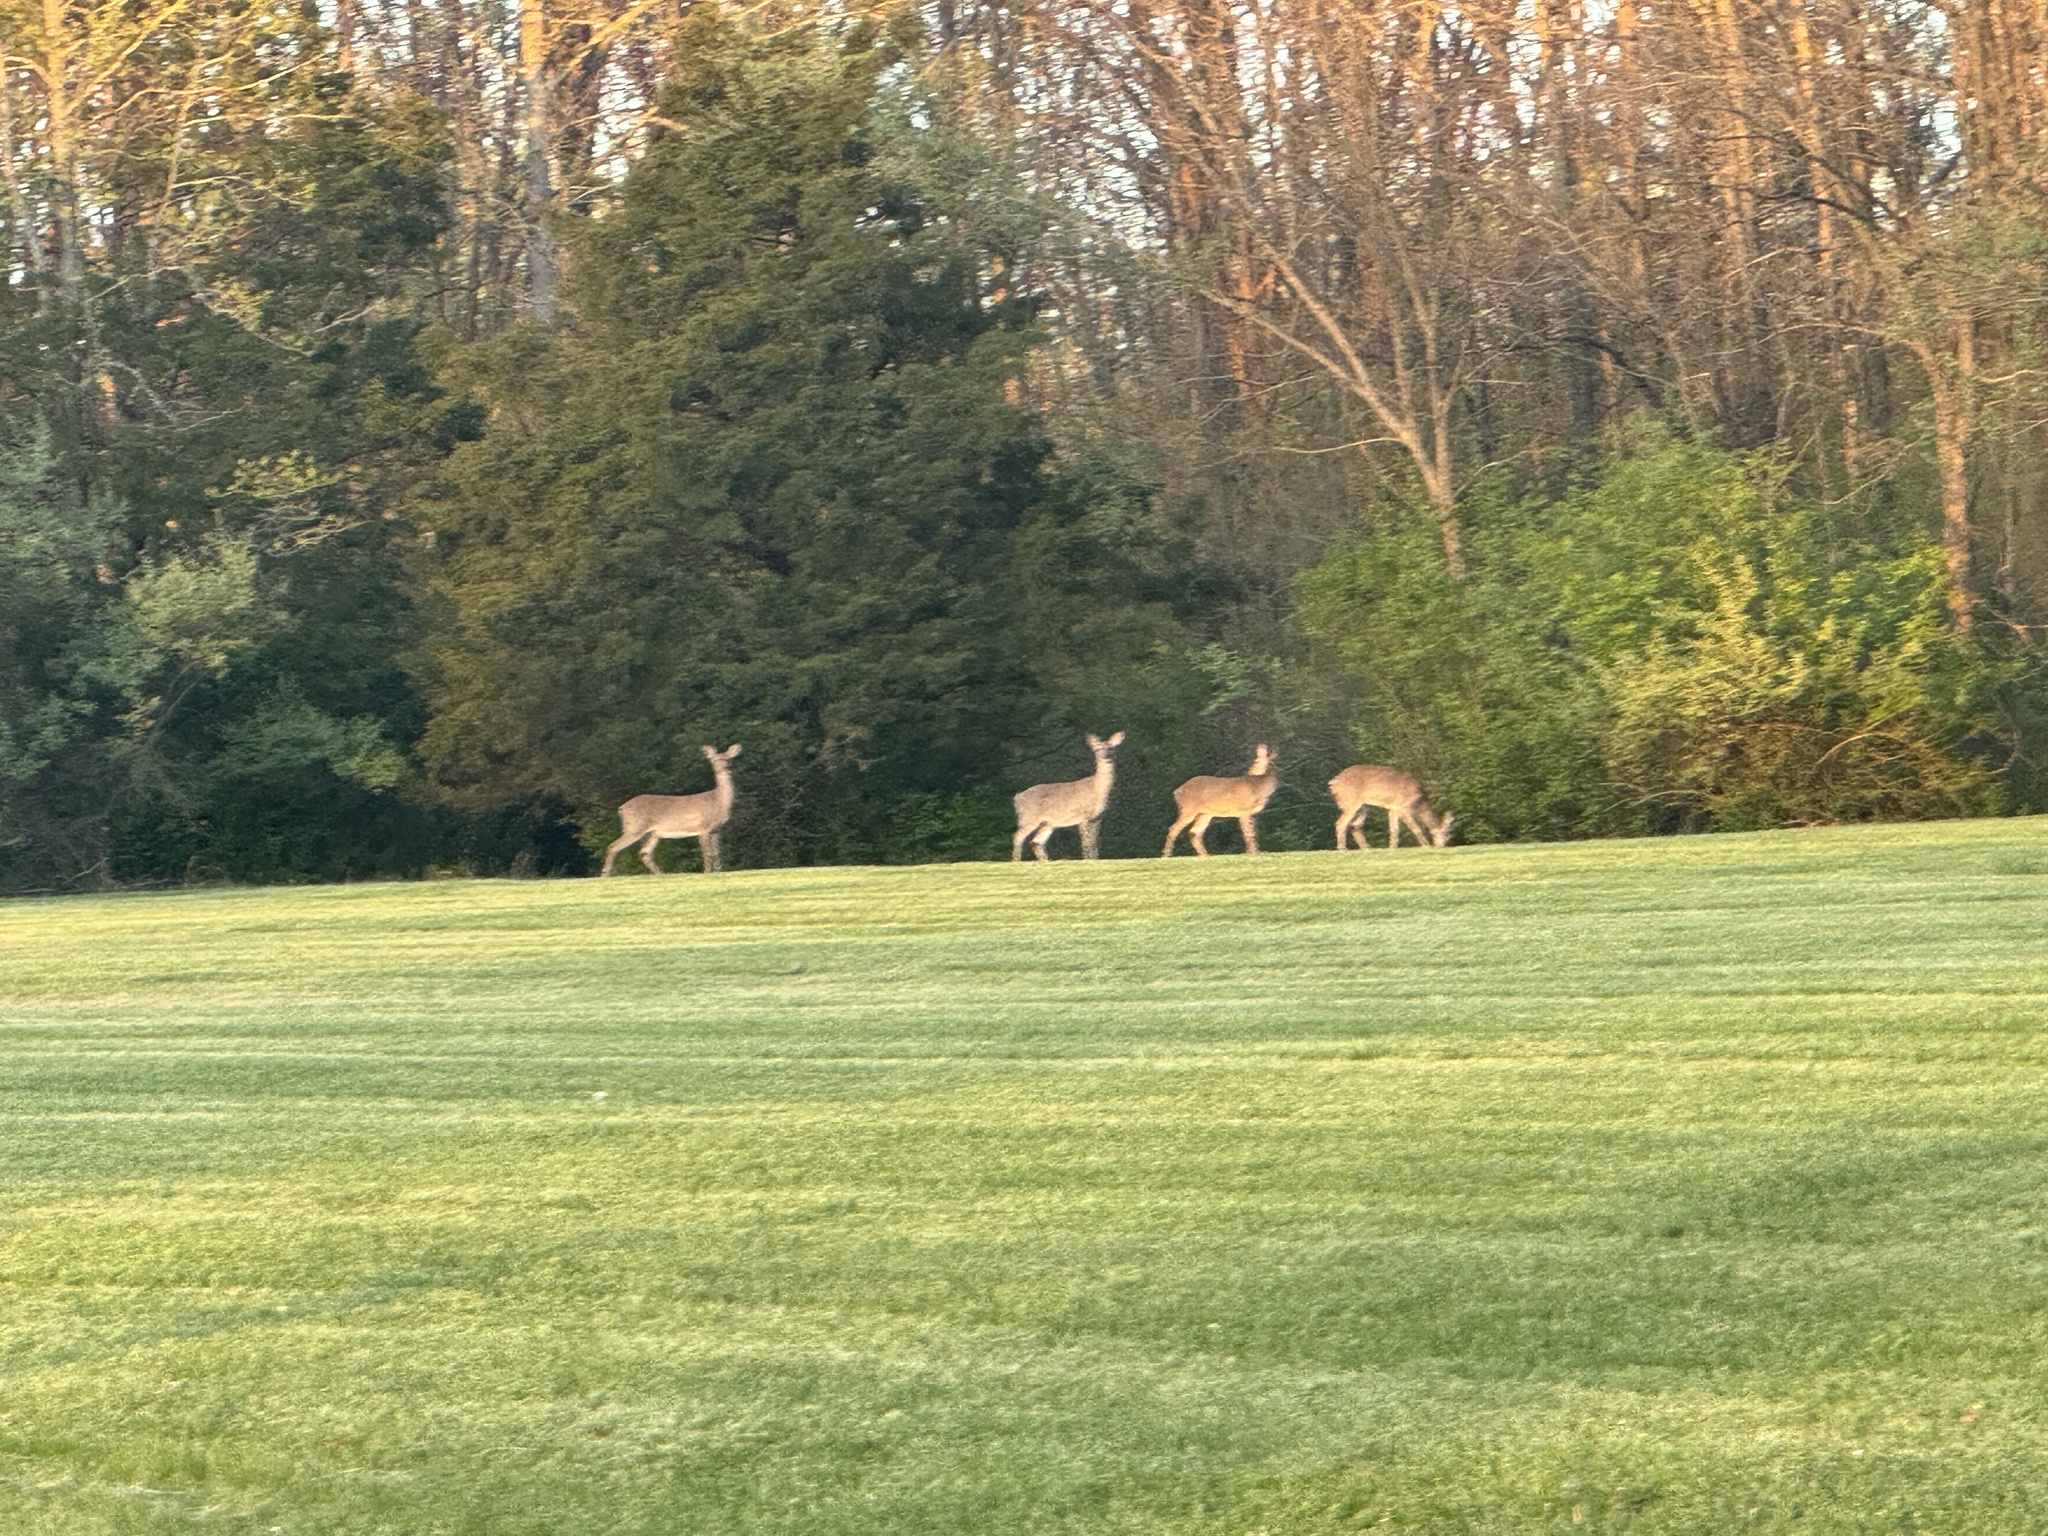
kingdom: Animalia
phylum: Chordata
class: Mammalia
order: Artiodactyla
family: Cervidae
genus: Odocoileus
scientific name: Odocoileus virginianus
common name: White-tailed deer
